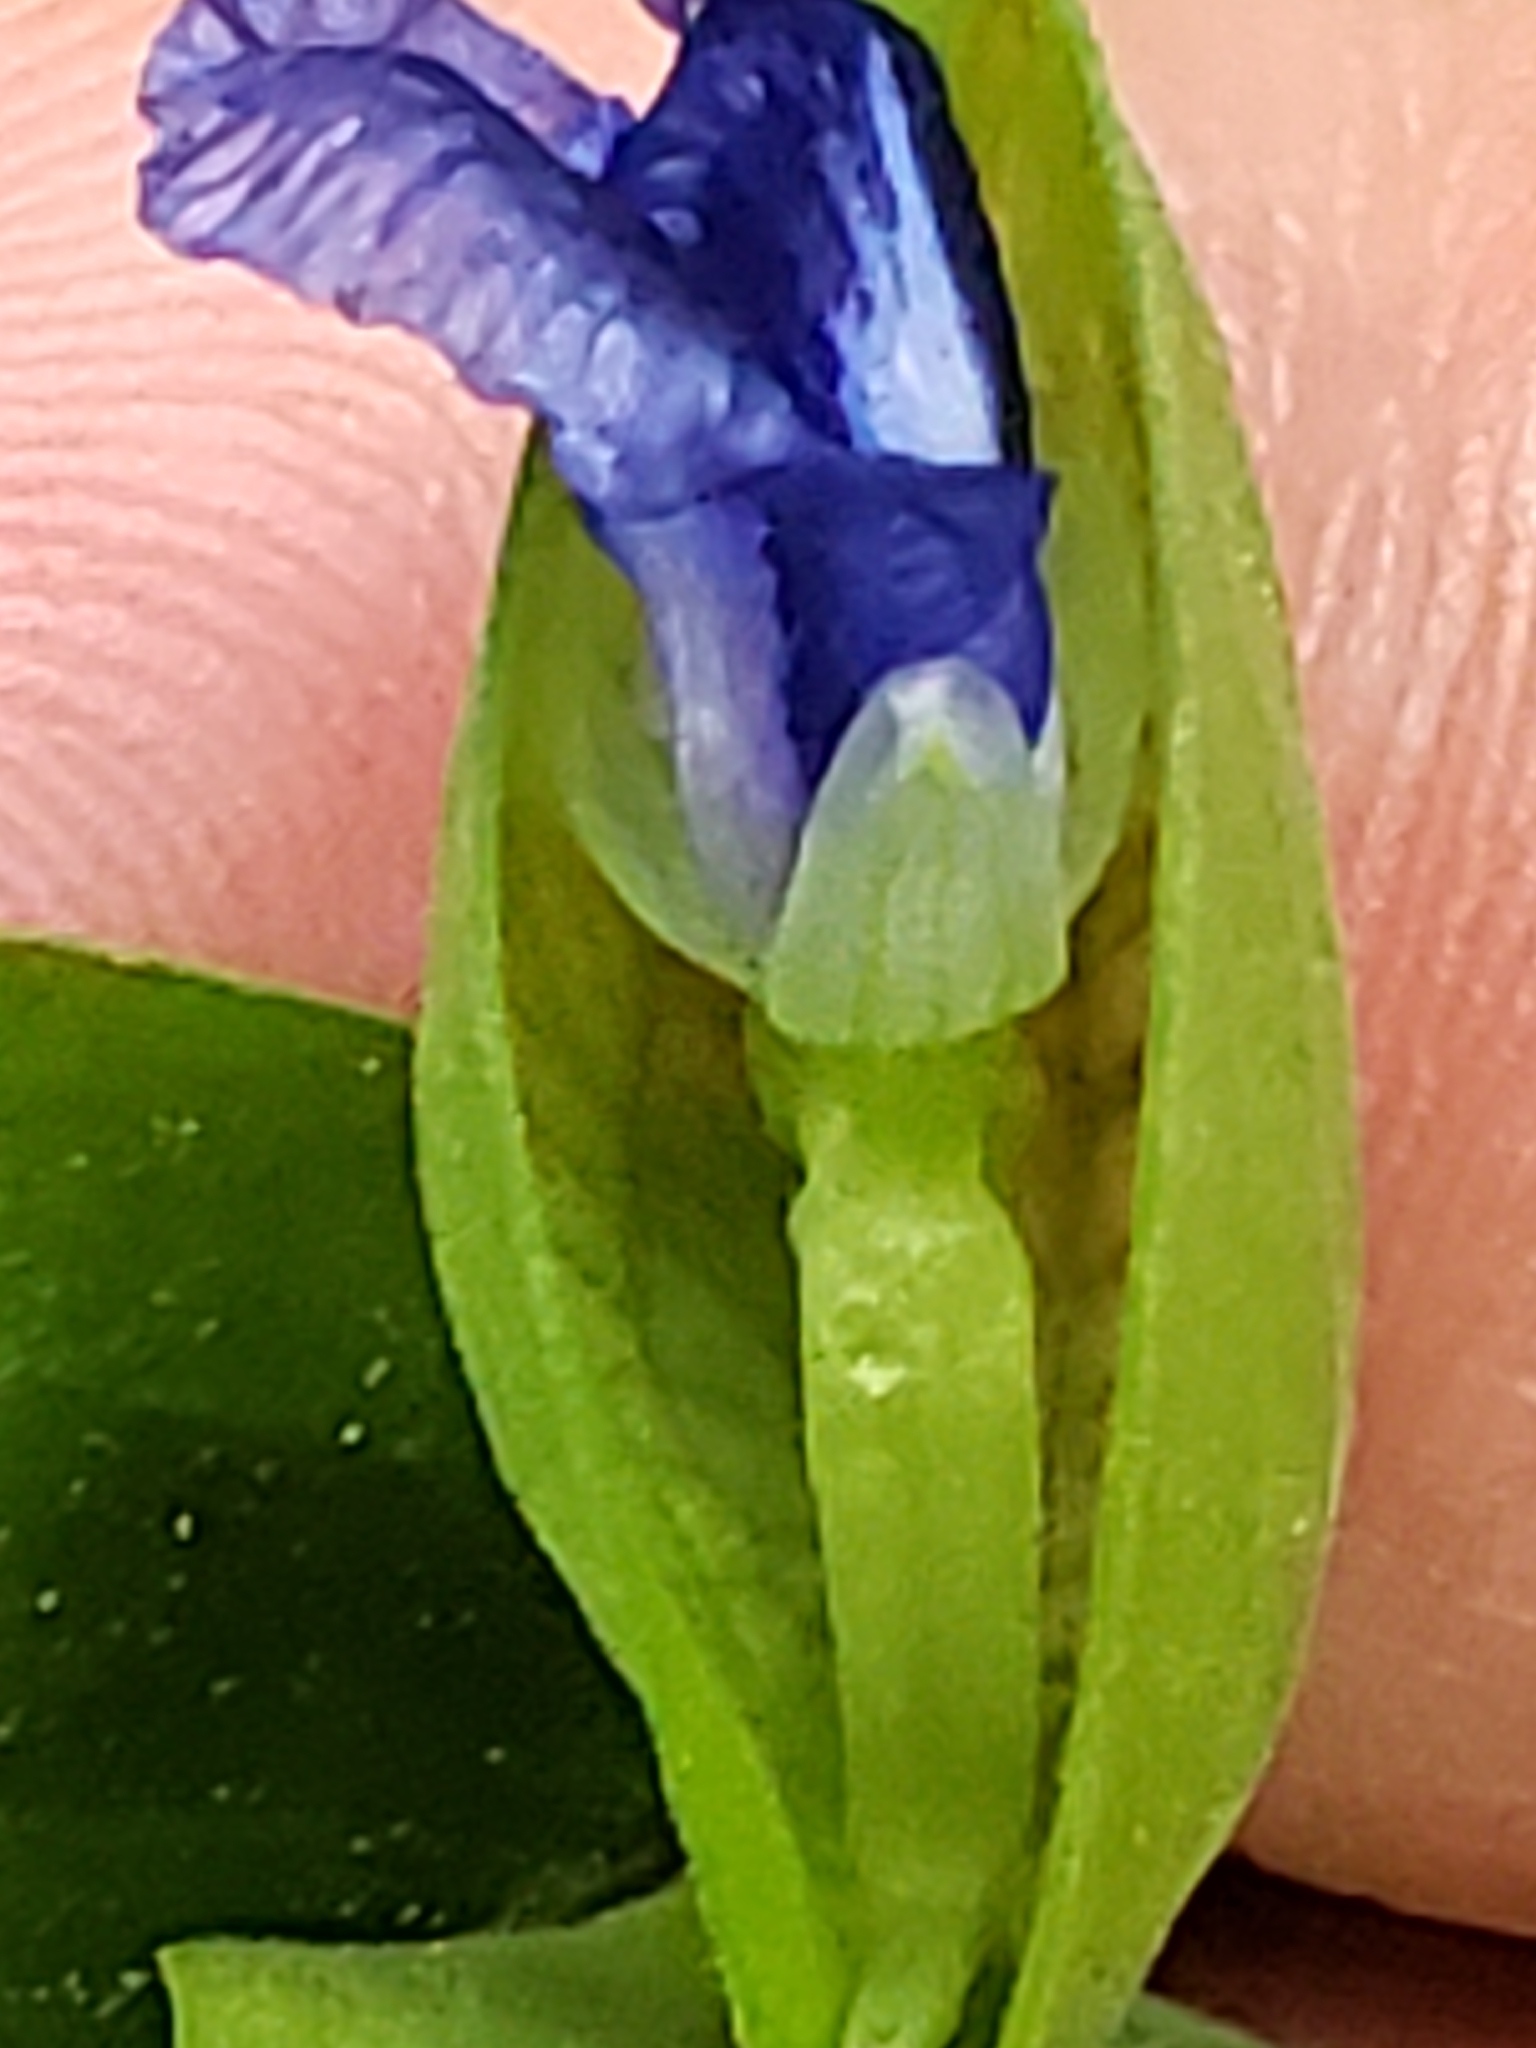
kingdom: Plantae
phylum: Tracheophyta
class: Liliopsida
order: Commelinales
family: Commelinaceae
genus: Commelina
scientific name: Commelina communis
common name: Asiatic dayflower
